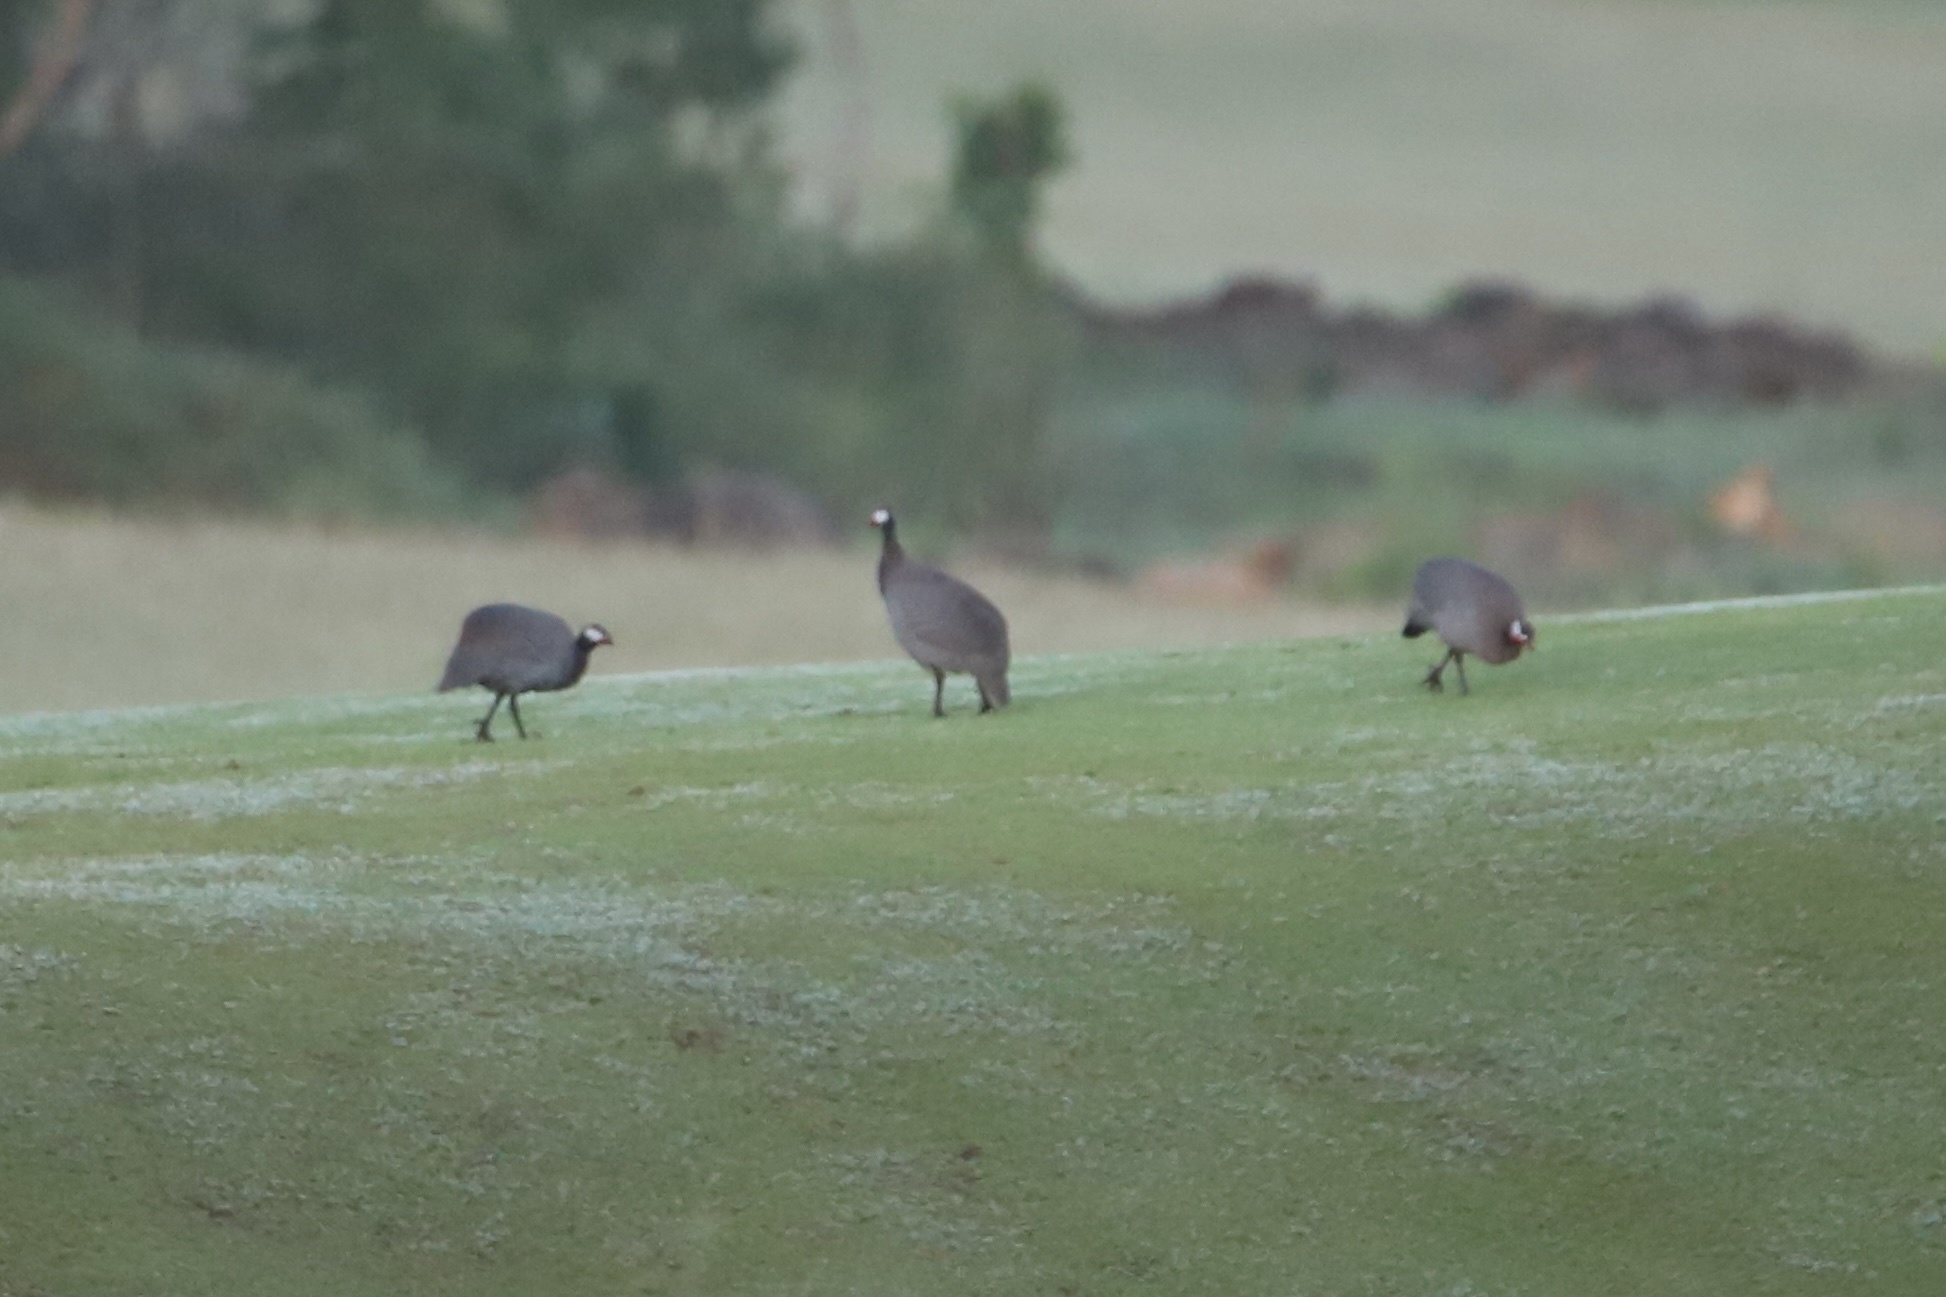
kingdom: Animalia
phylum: Chordata
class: Aves
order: Galliformes
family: Numididae
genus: Numida
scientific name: Numida meleagris
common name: Helmeted guineafowl
